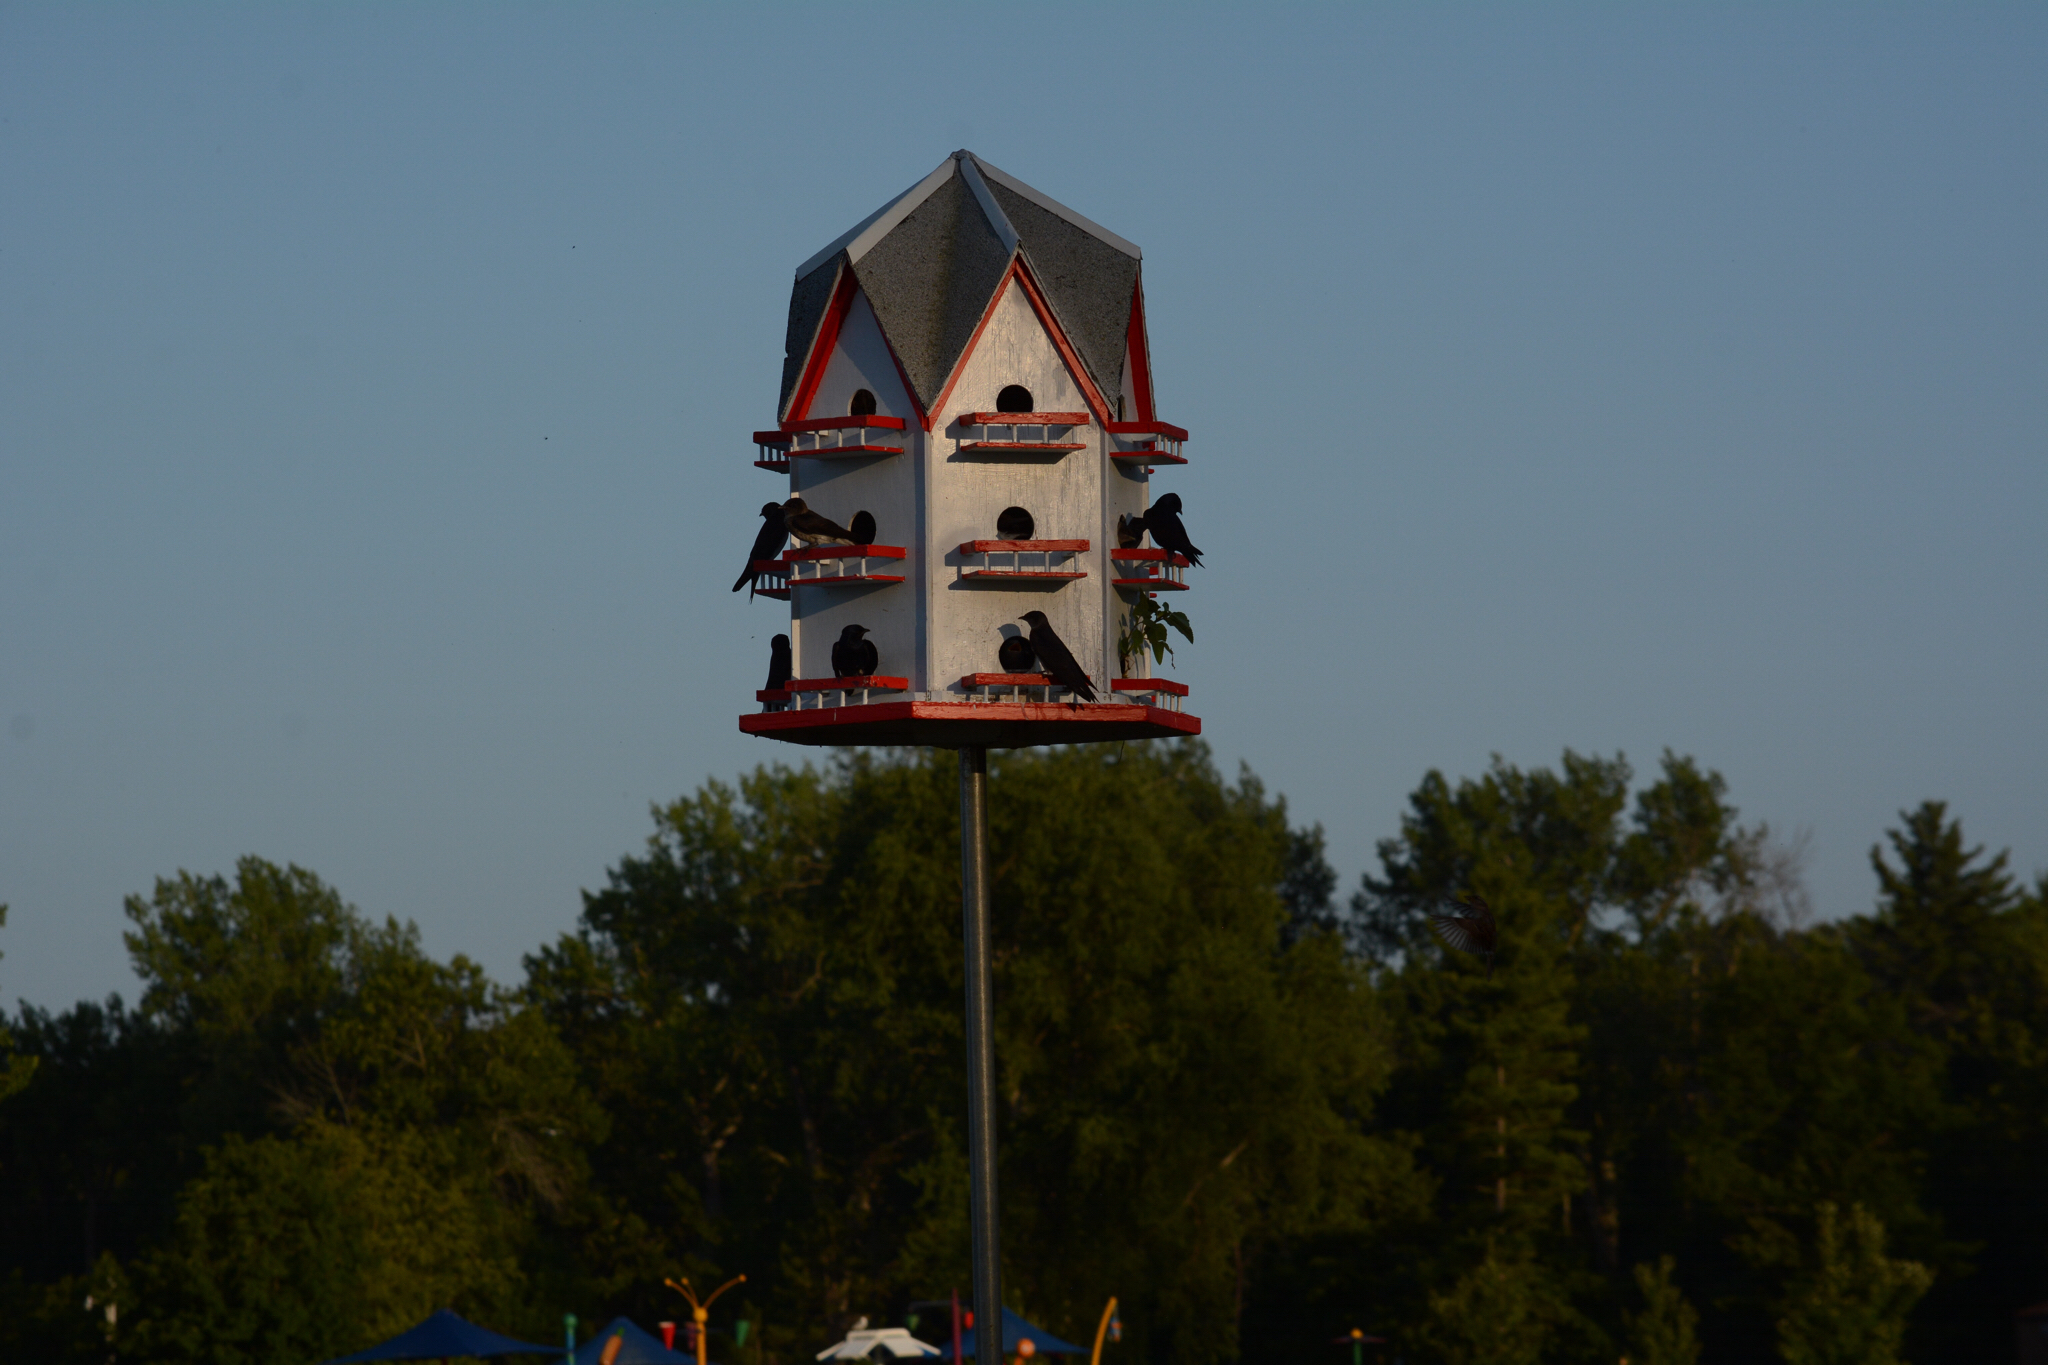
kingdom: Animalia
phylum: Chordata
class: Aves
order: Passeriformes
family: Hirundinidae
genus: Progne
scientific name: Progne subis
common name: Purple martin
